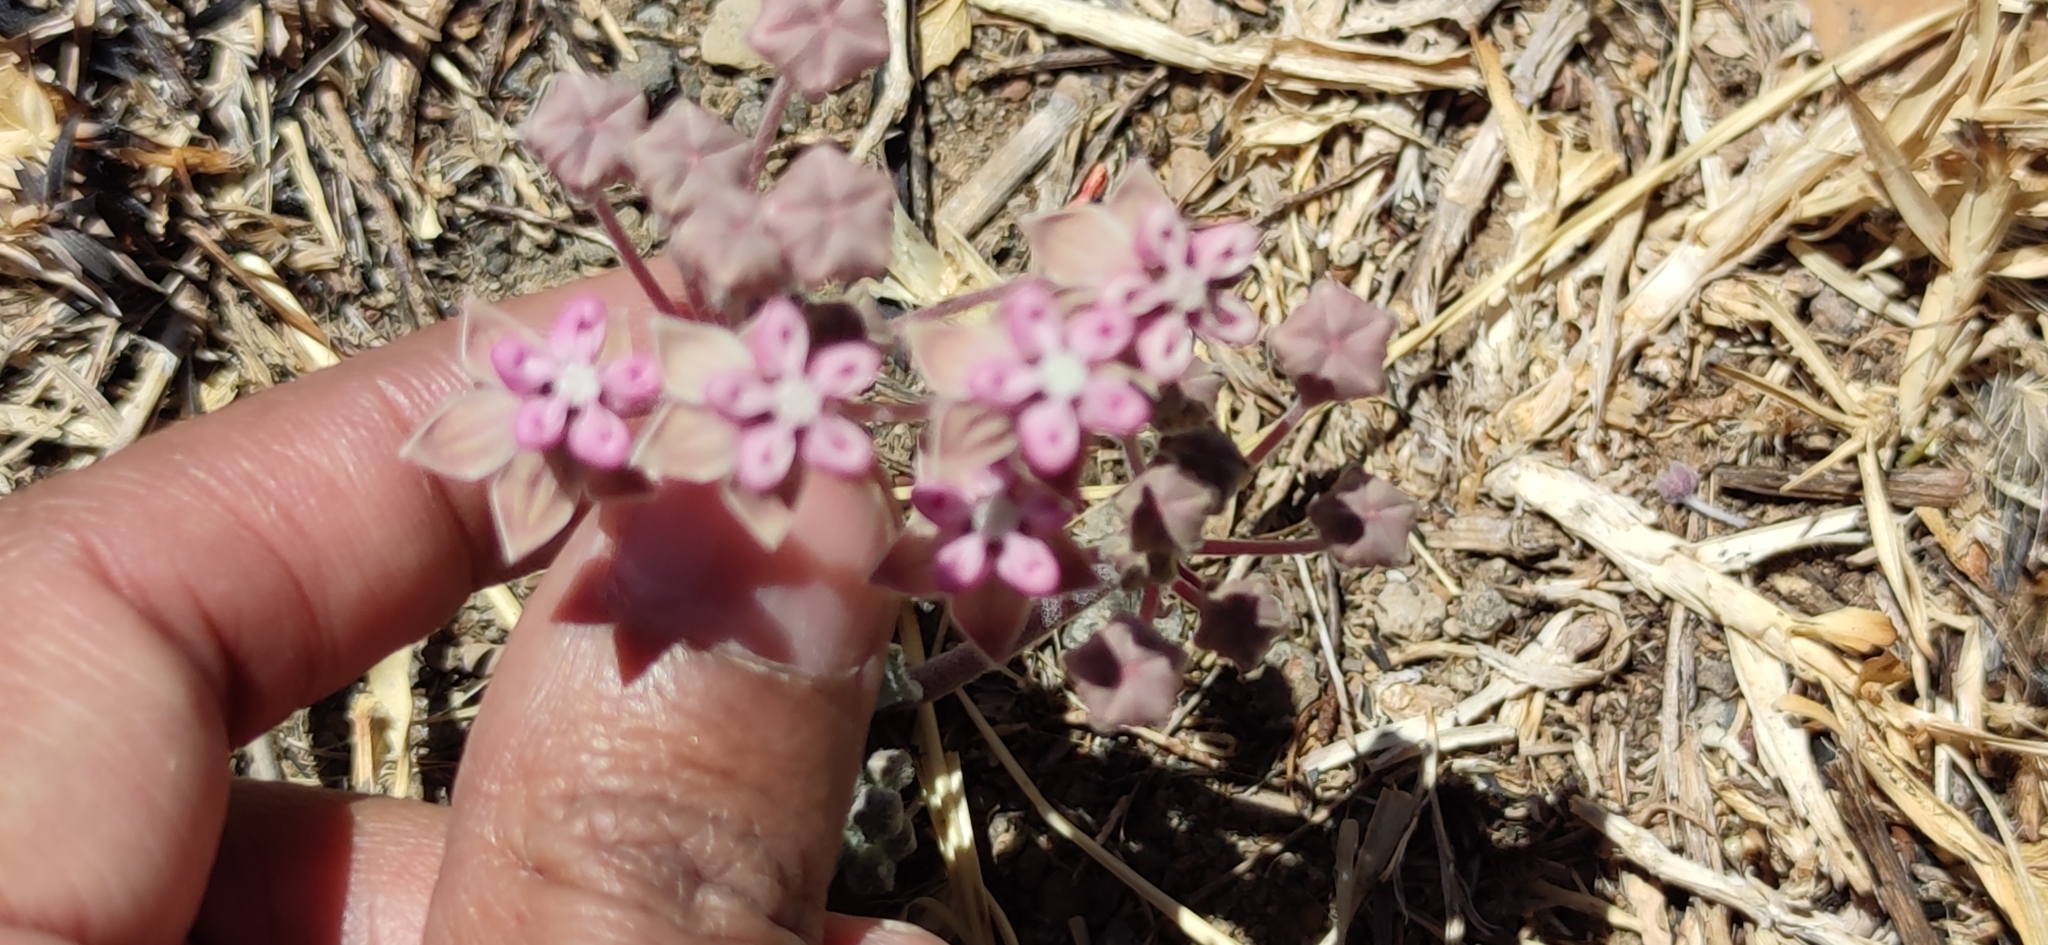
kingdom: Plantae
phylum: Tracheophyta
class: Magnoliopsida
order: Gentianales
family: Apocynaceae
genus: Asclepias
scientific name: Asclepias nummularia
